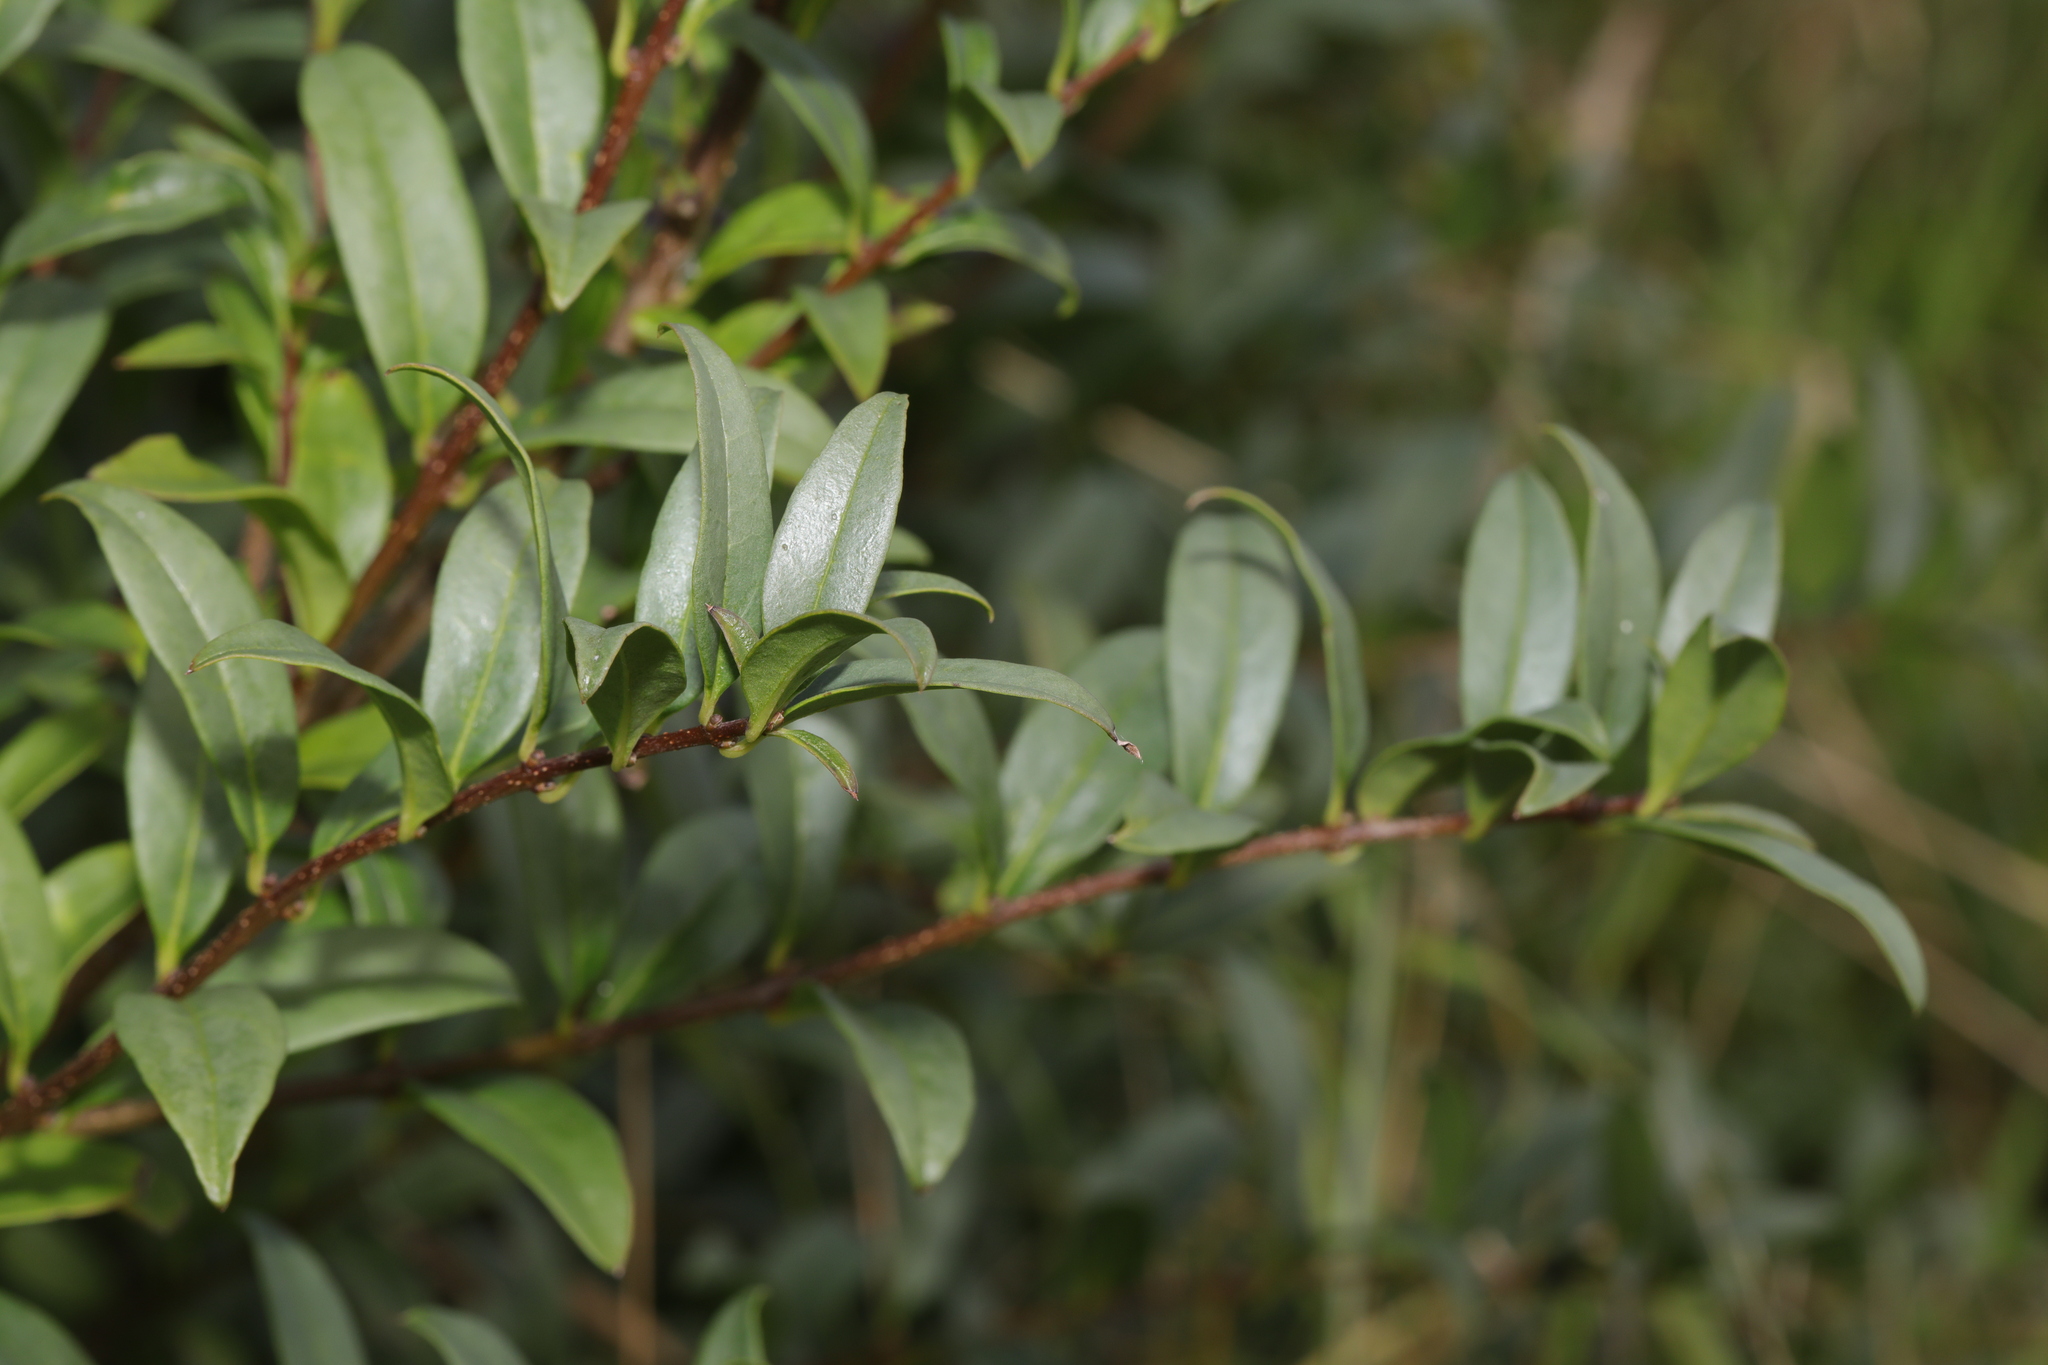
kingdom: Plantae
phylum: Tracheophyta
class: Magnoliopsida
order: Lamiales
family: Oleaceae
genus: Ligustrum
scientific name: Ligustrum vulgare
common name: Wild privet
